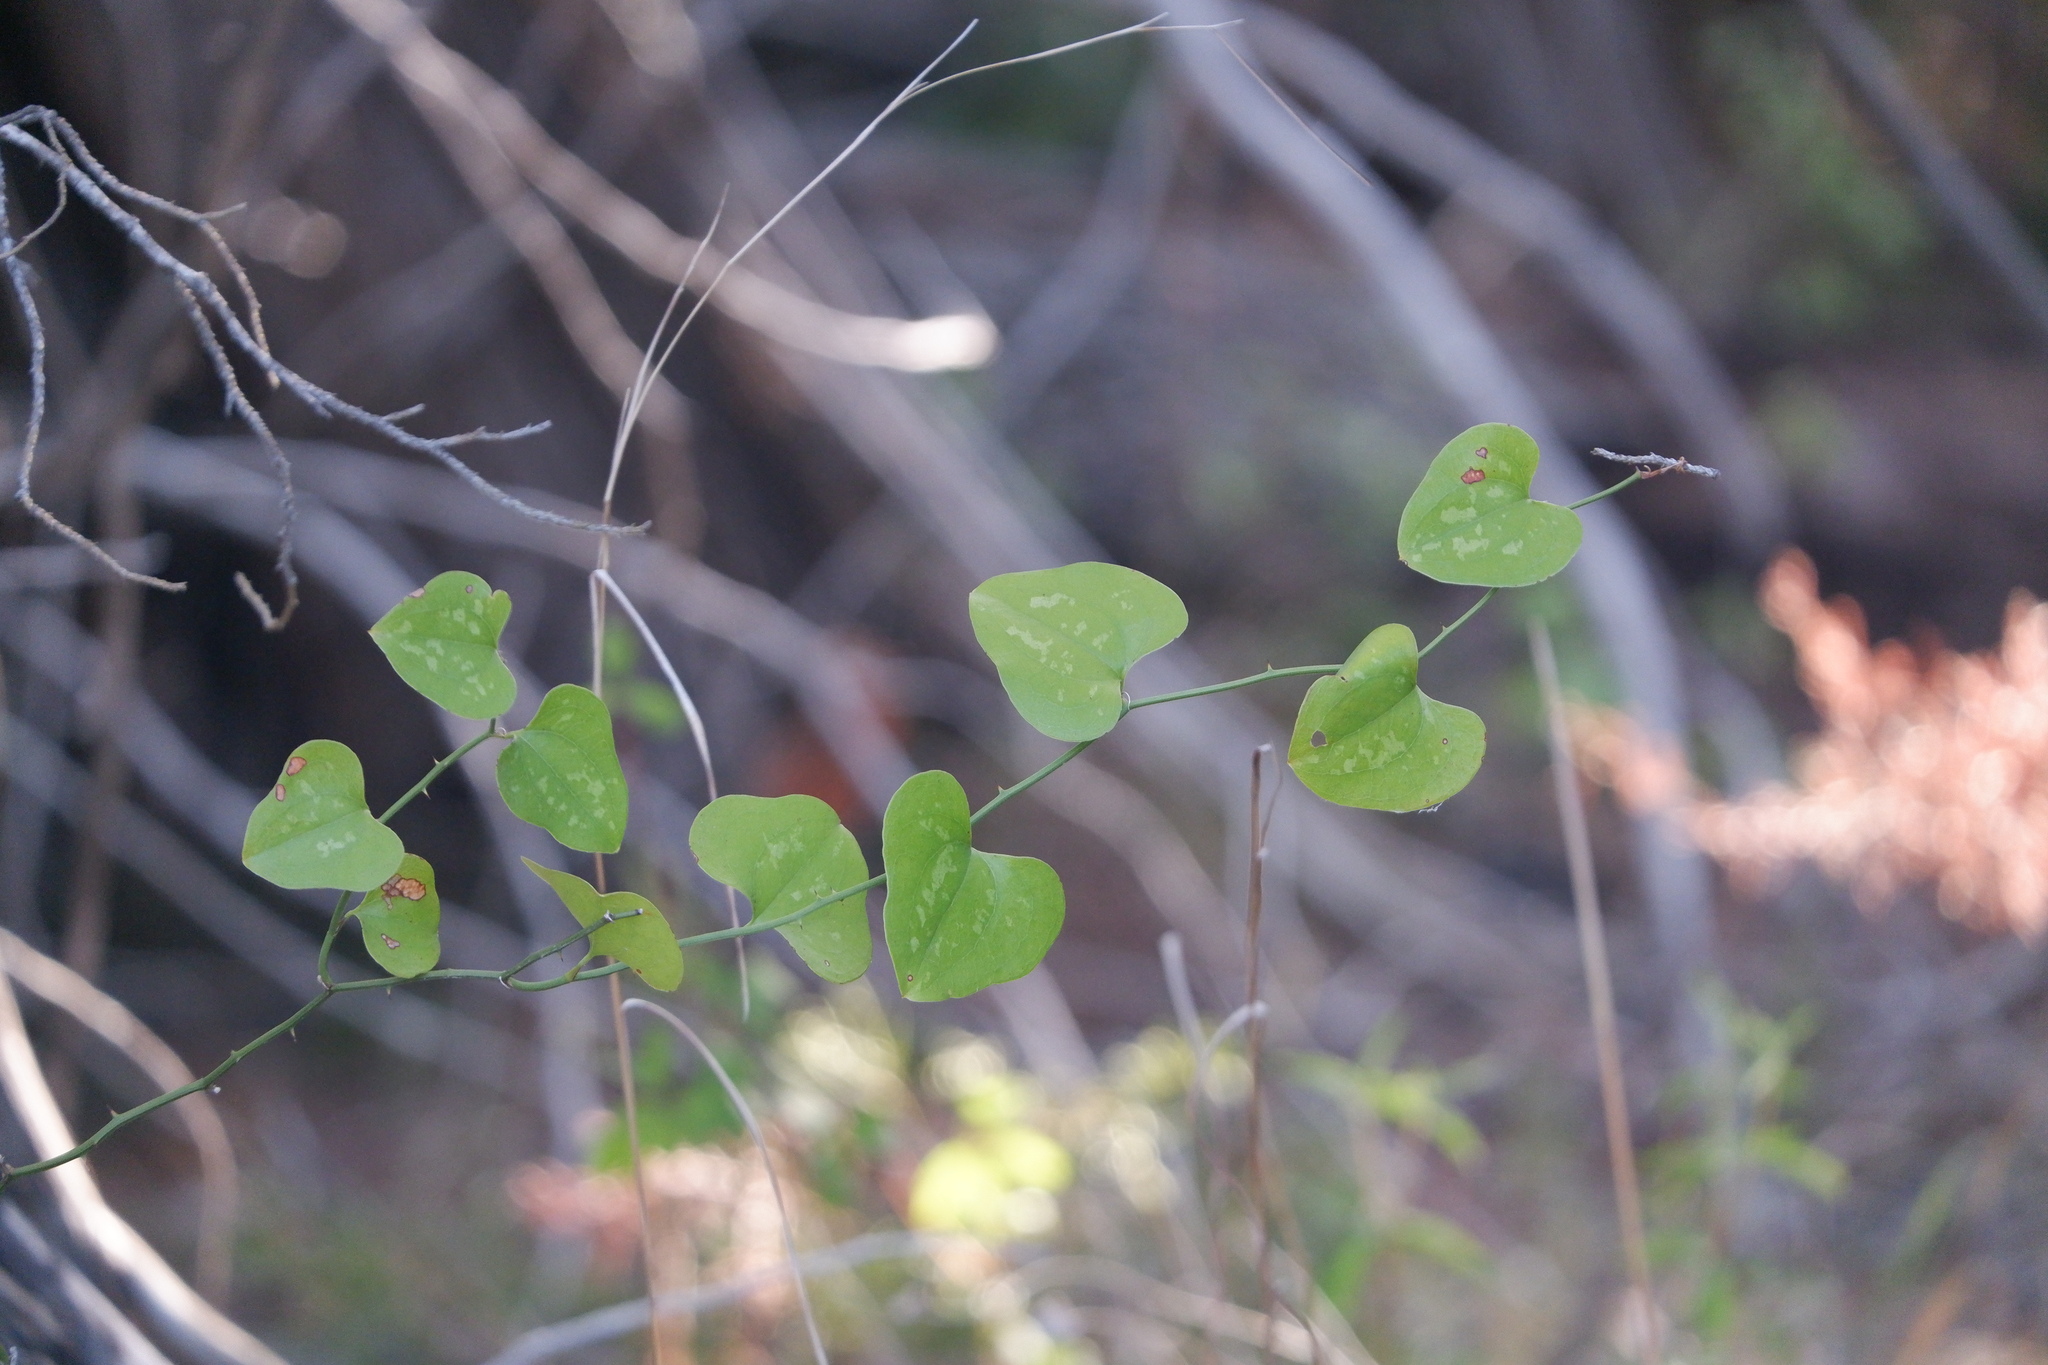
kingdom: Plantae
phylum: Tracheophyta
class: Liliopsida
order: Liliales
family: Smilacaceae
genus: Smilax
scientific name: Smilax bona-nox
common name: Catbrier
